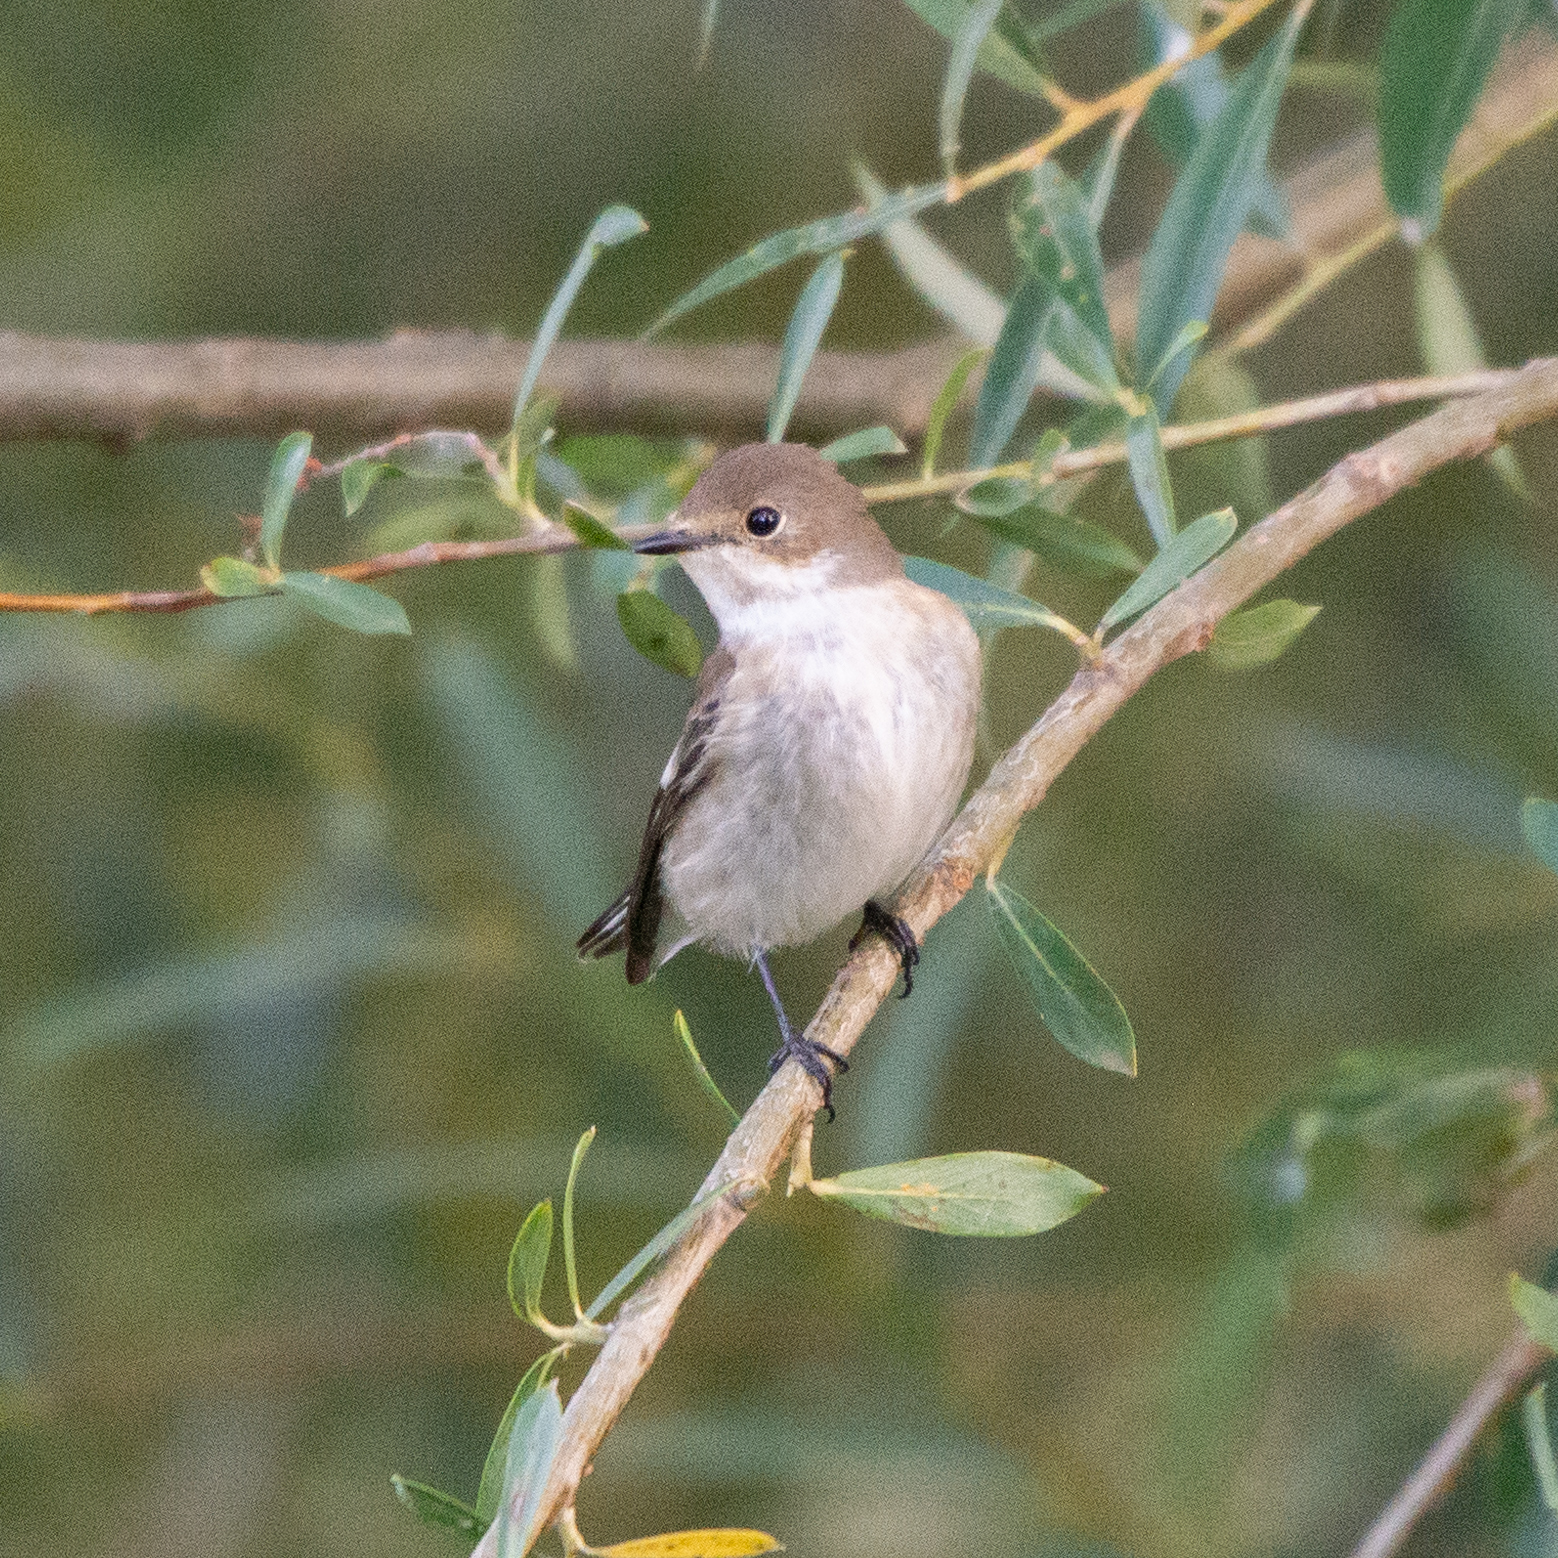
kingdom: Animalia
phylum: Chordata
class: Aves
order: Passeriformes
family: Muscicapidae
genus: Ficedula
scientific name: Ficedula hypoleuca
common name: European pied flycatcher
